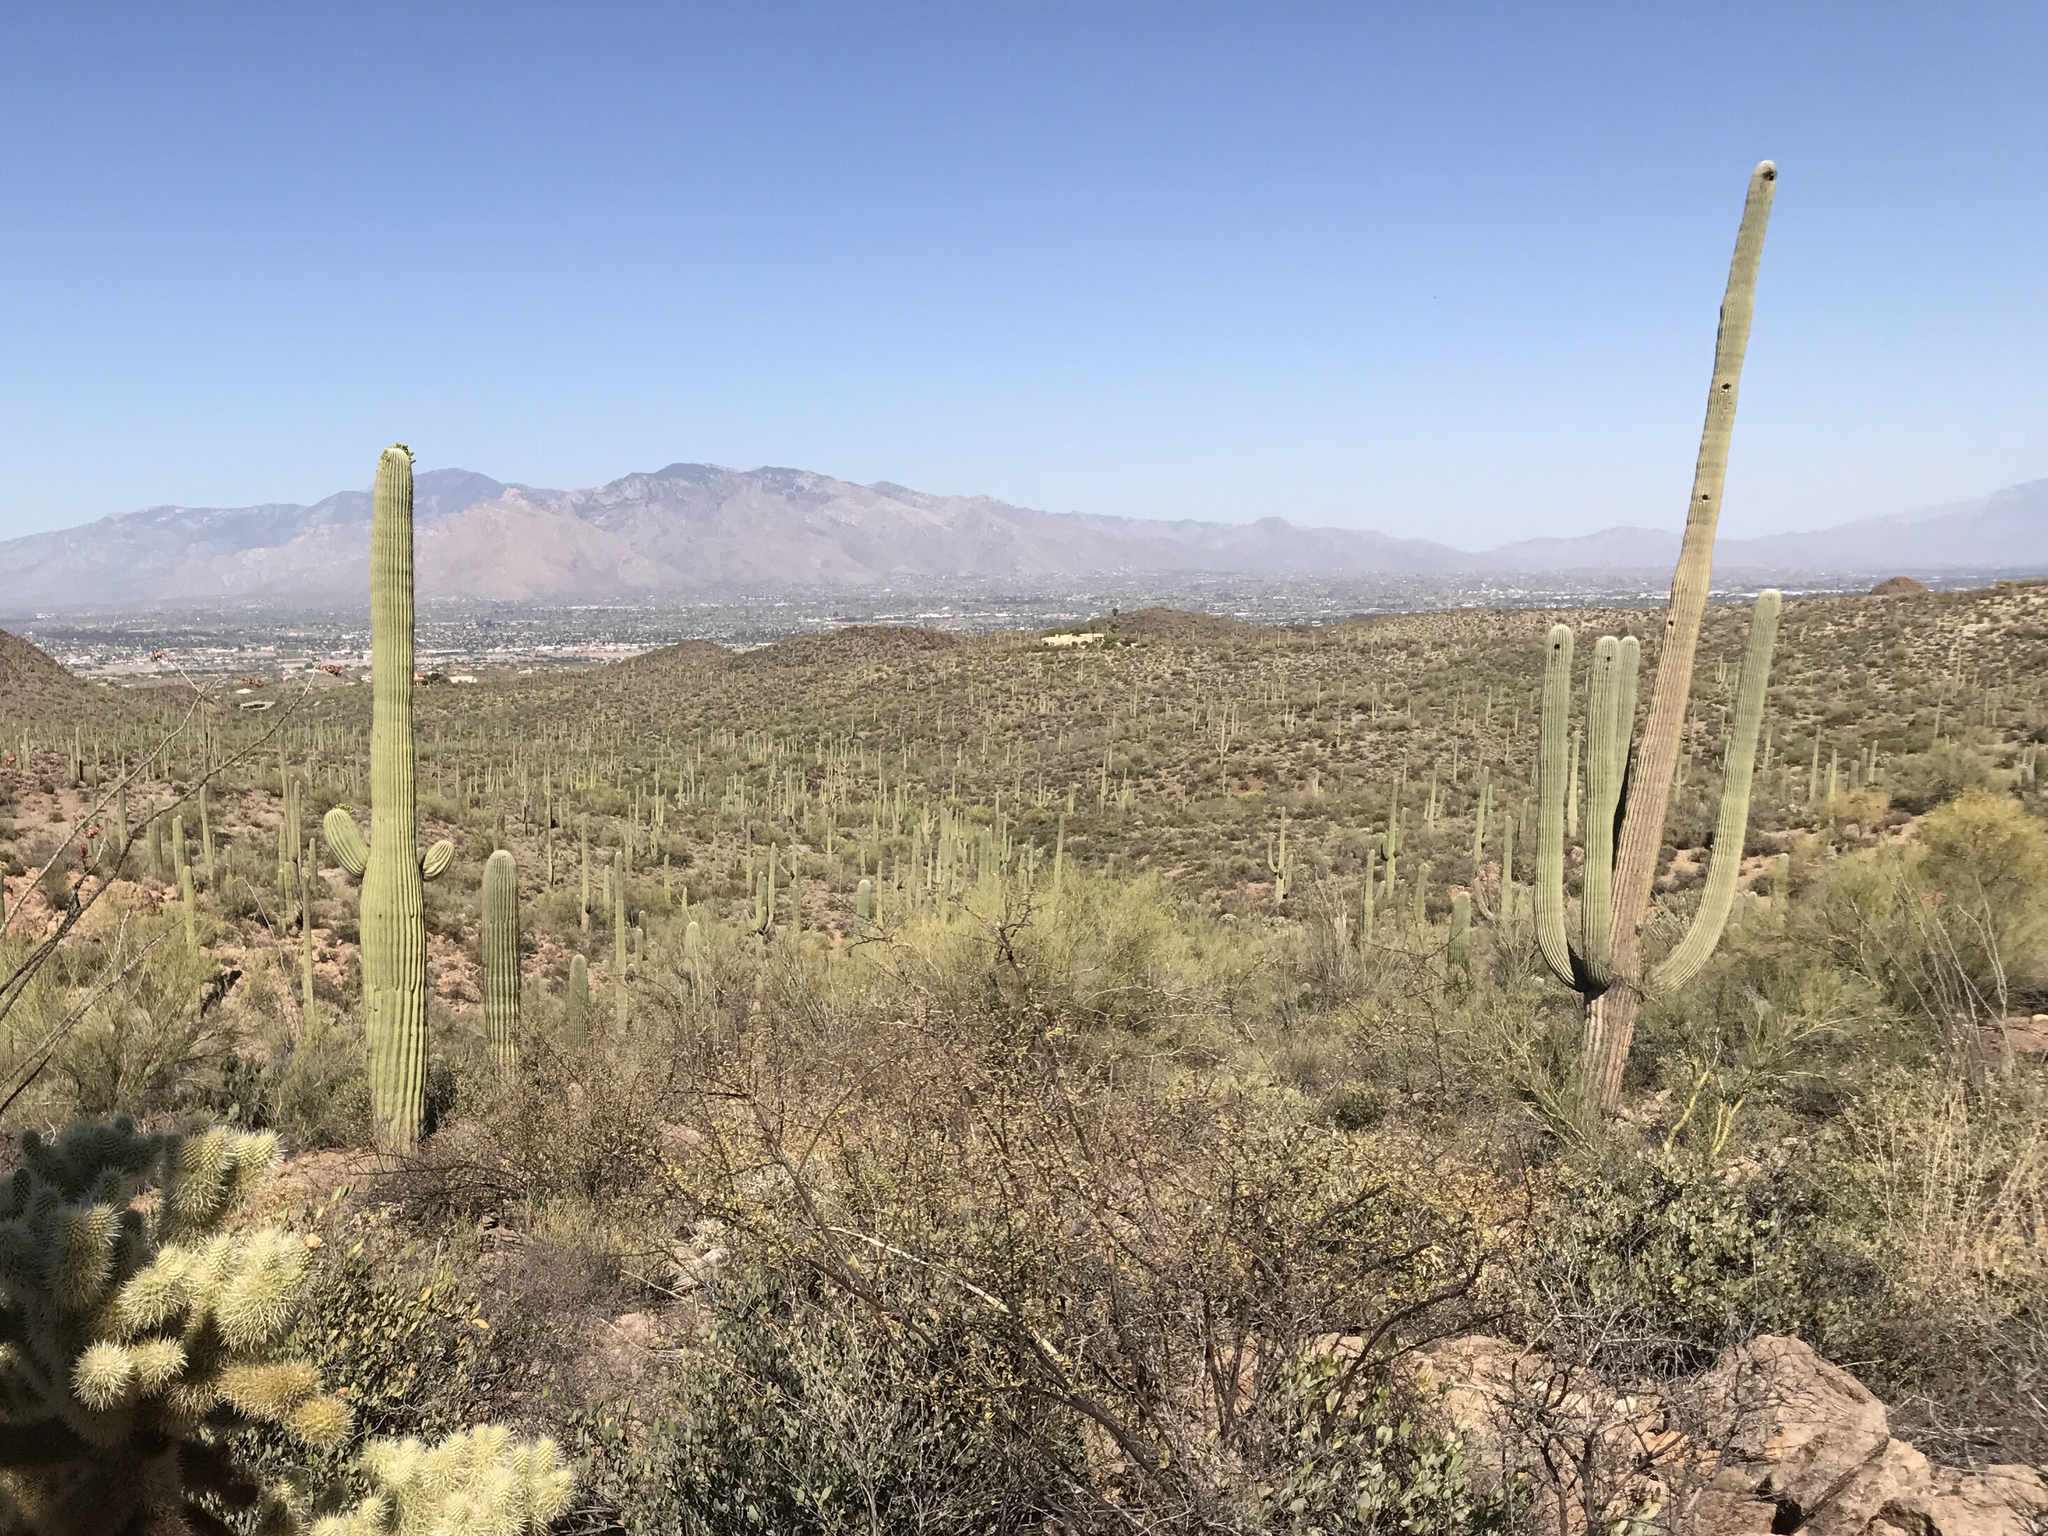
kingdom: Plantae
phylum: Tracheophyta
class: Magnoliopsida
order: Caryophyllales
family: Cactaceae
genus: Carnegiea
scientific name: Carnegiea gigantea
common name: Saguaro
